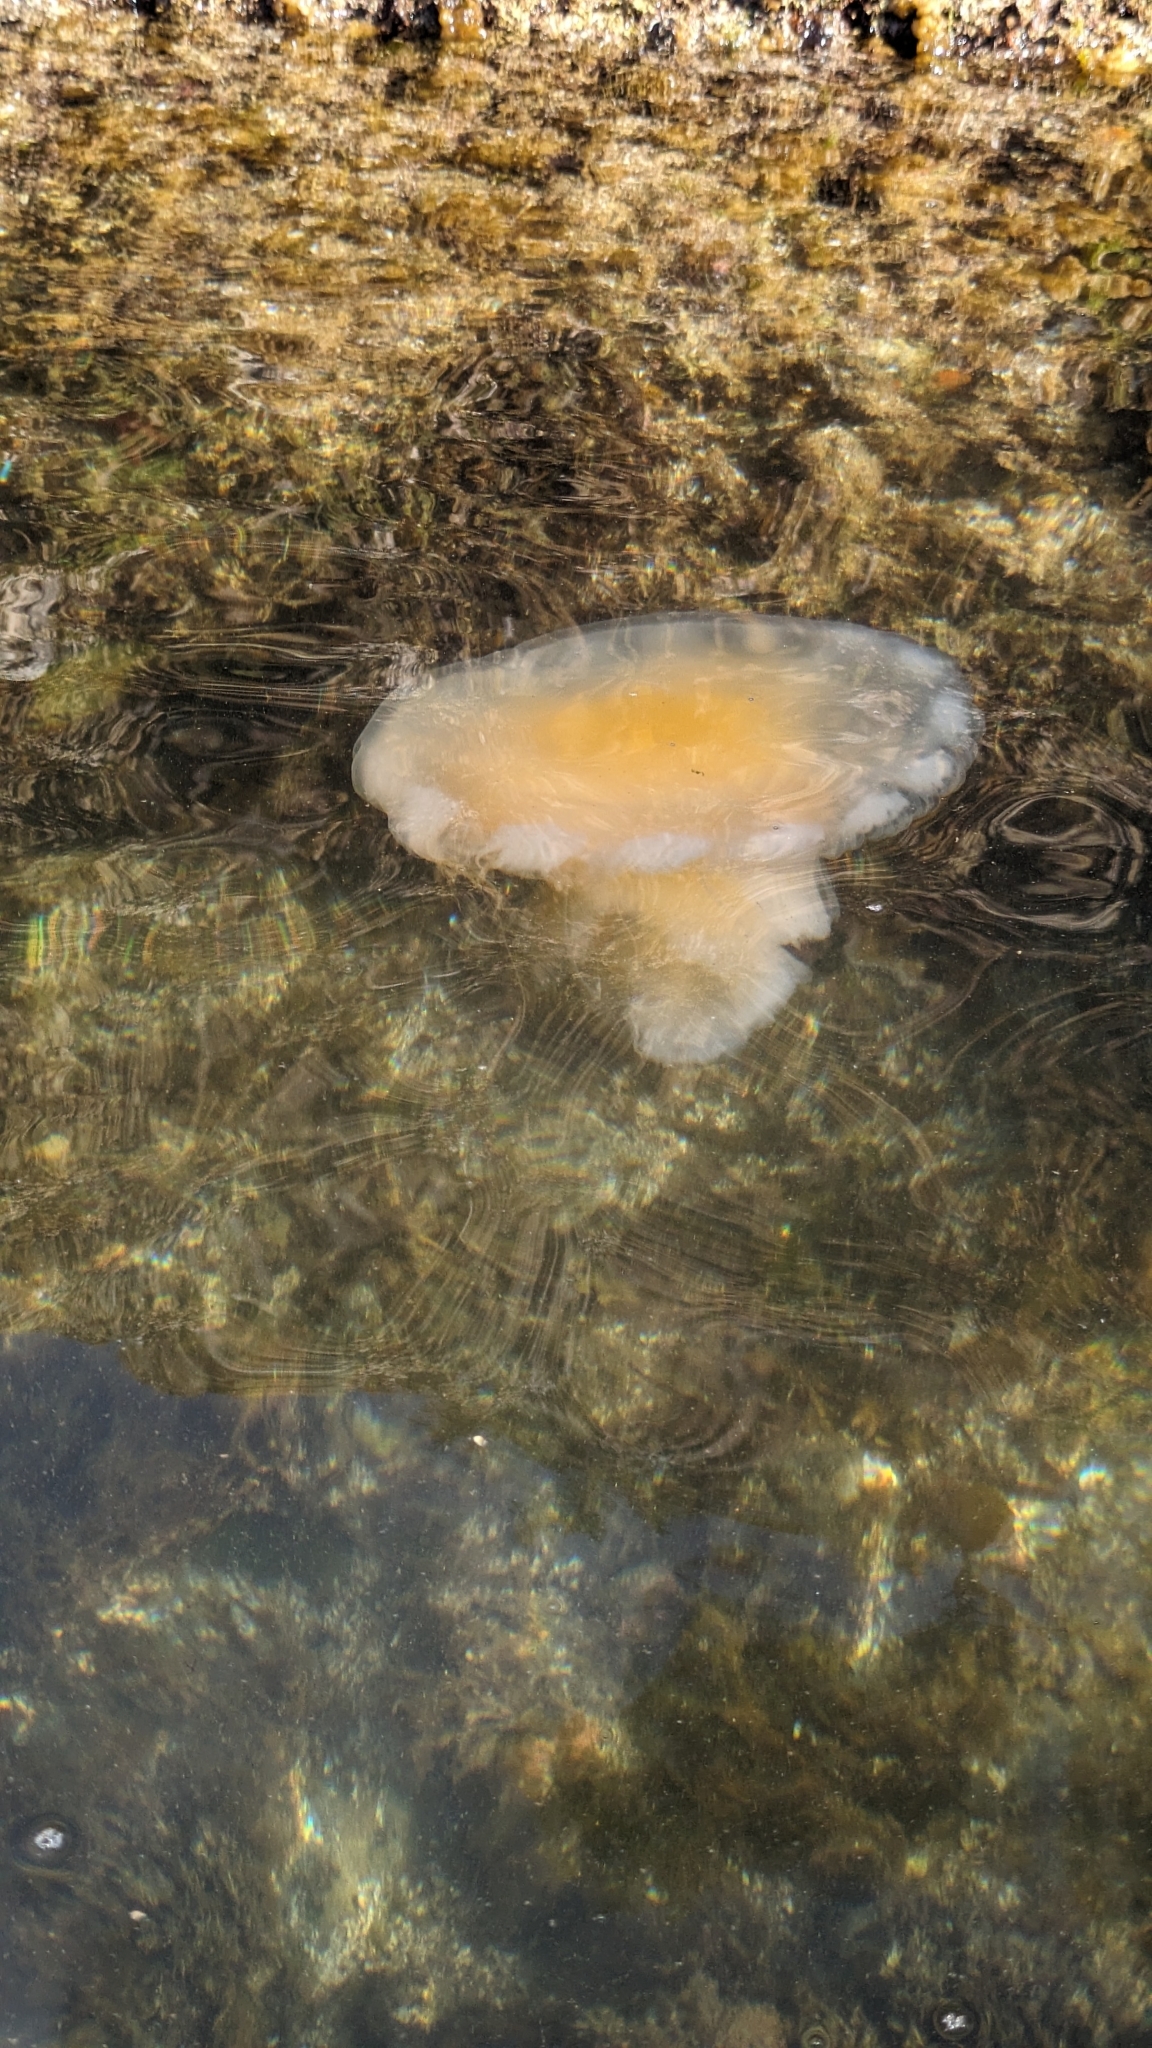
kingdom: Animalia
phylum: Cnidaria
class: Scyphozoa
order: Semaeostomeae
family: Phacellophoridae
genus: Phacellophora
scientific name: Phacellophora camtschatica
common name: Fried-egg jellyfish
